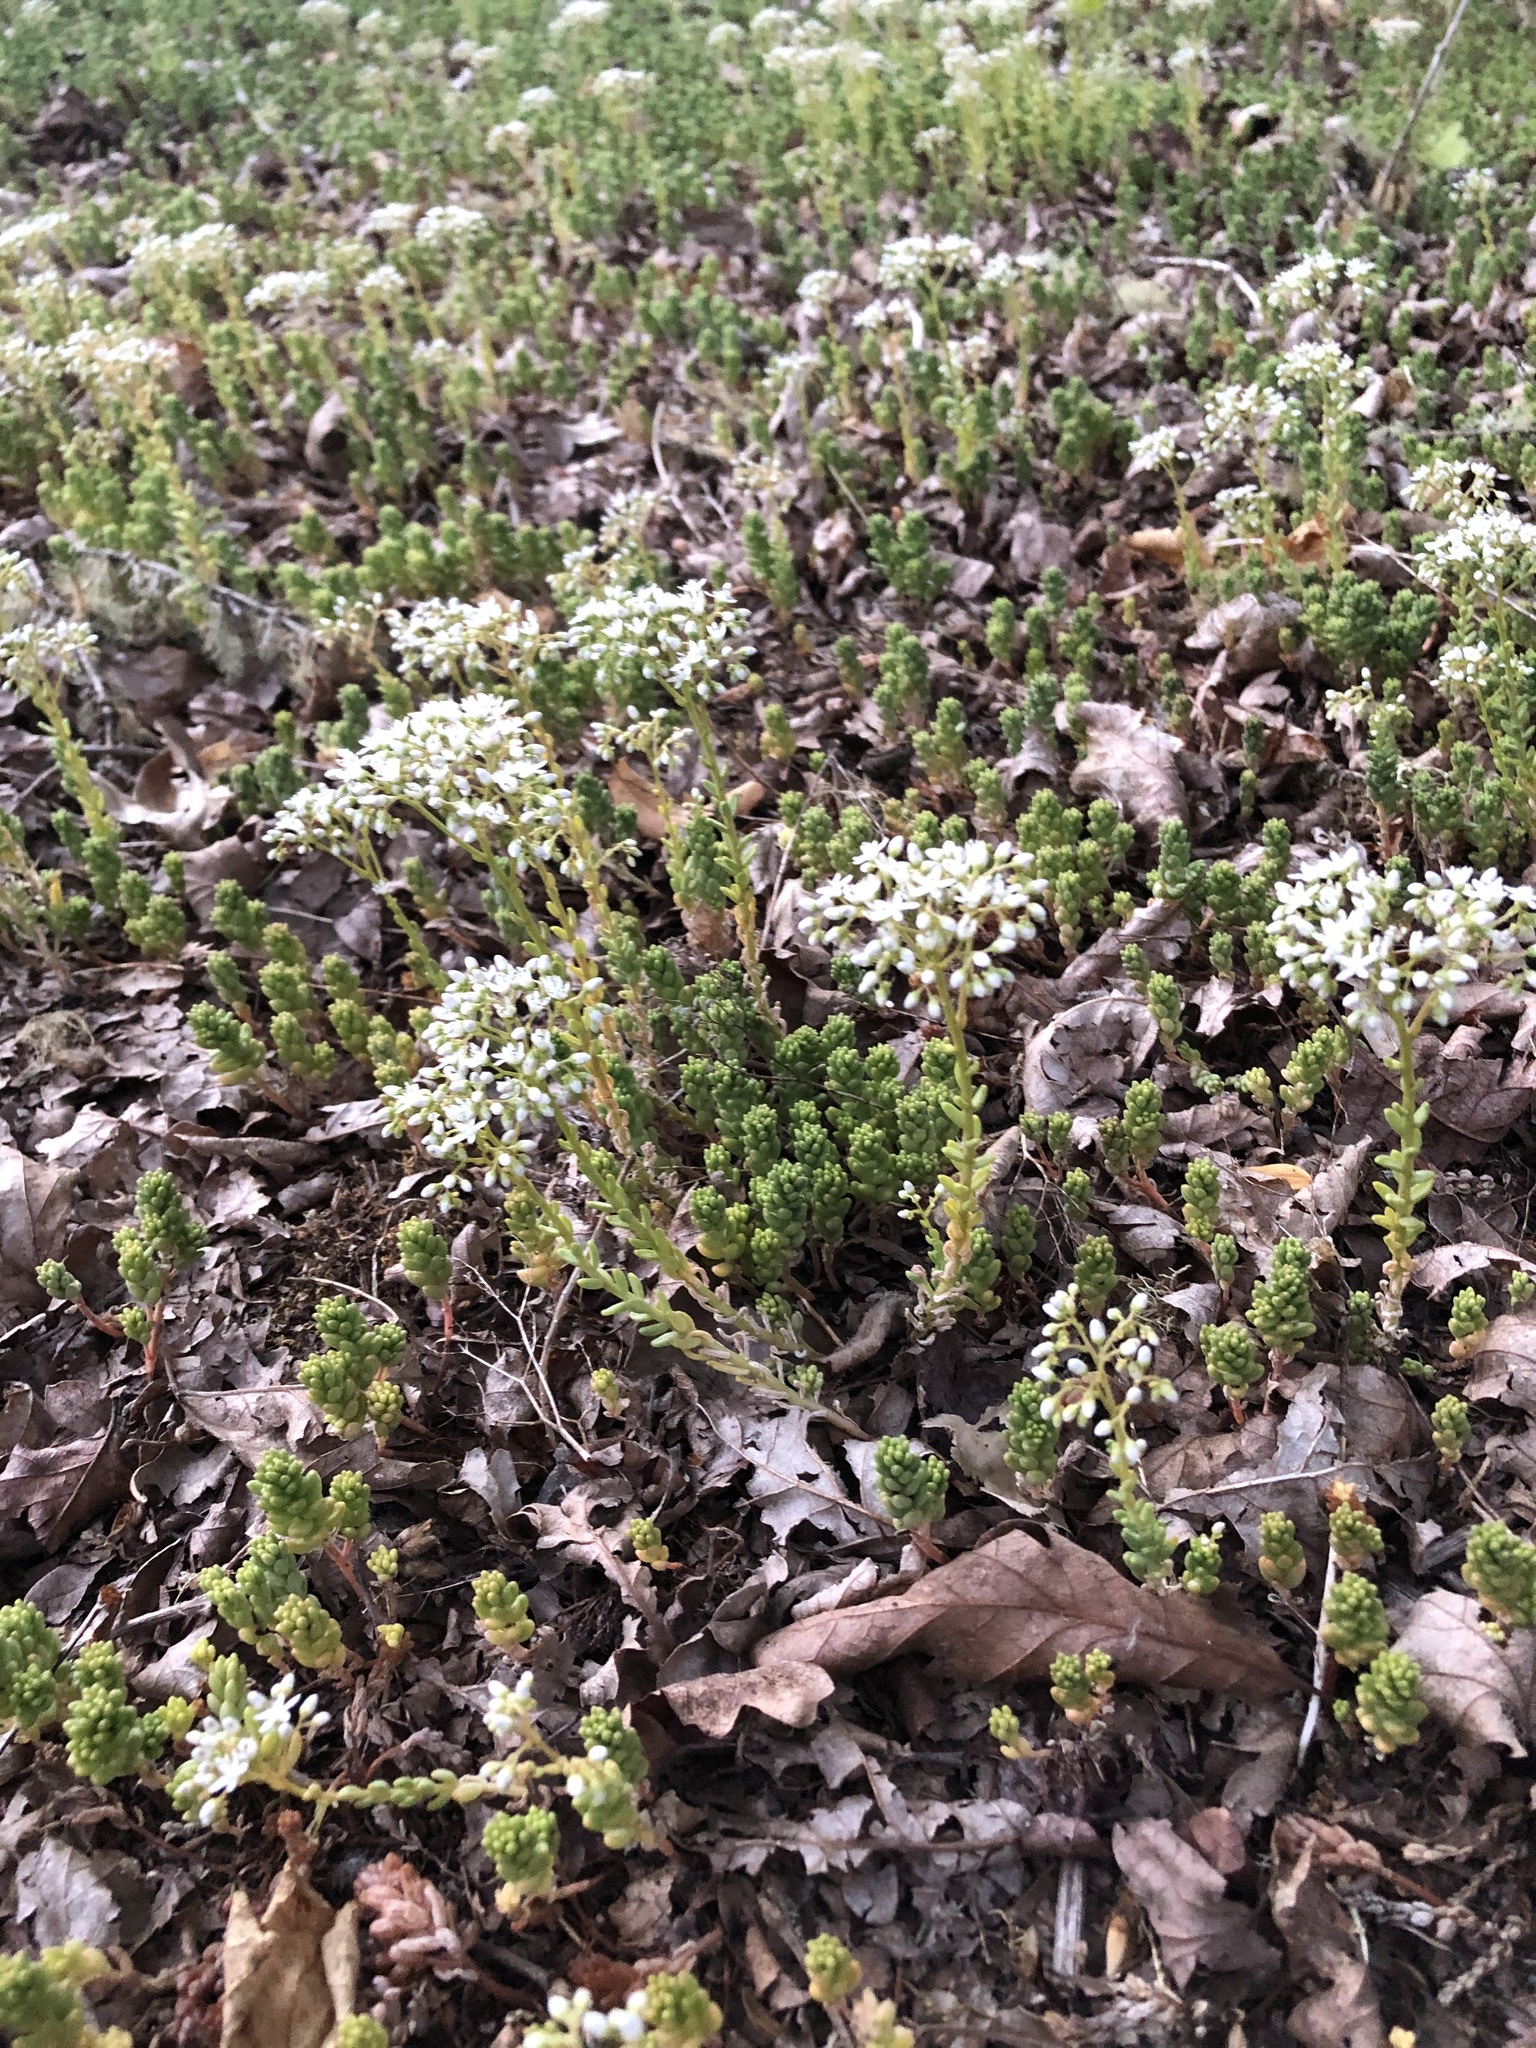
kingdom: Plantae
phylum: Tracheophyta
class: Magnoliopsida
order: Saxifragales
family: Crassulaceae
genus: Sedum
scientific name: Sedum album
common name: White stonecrop
